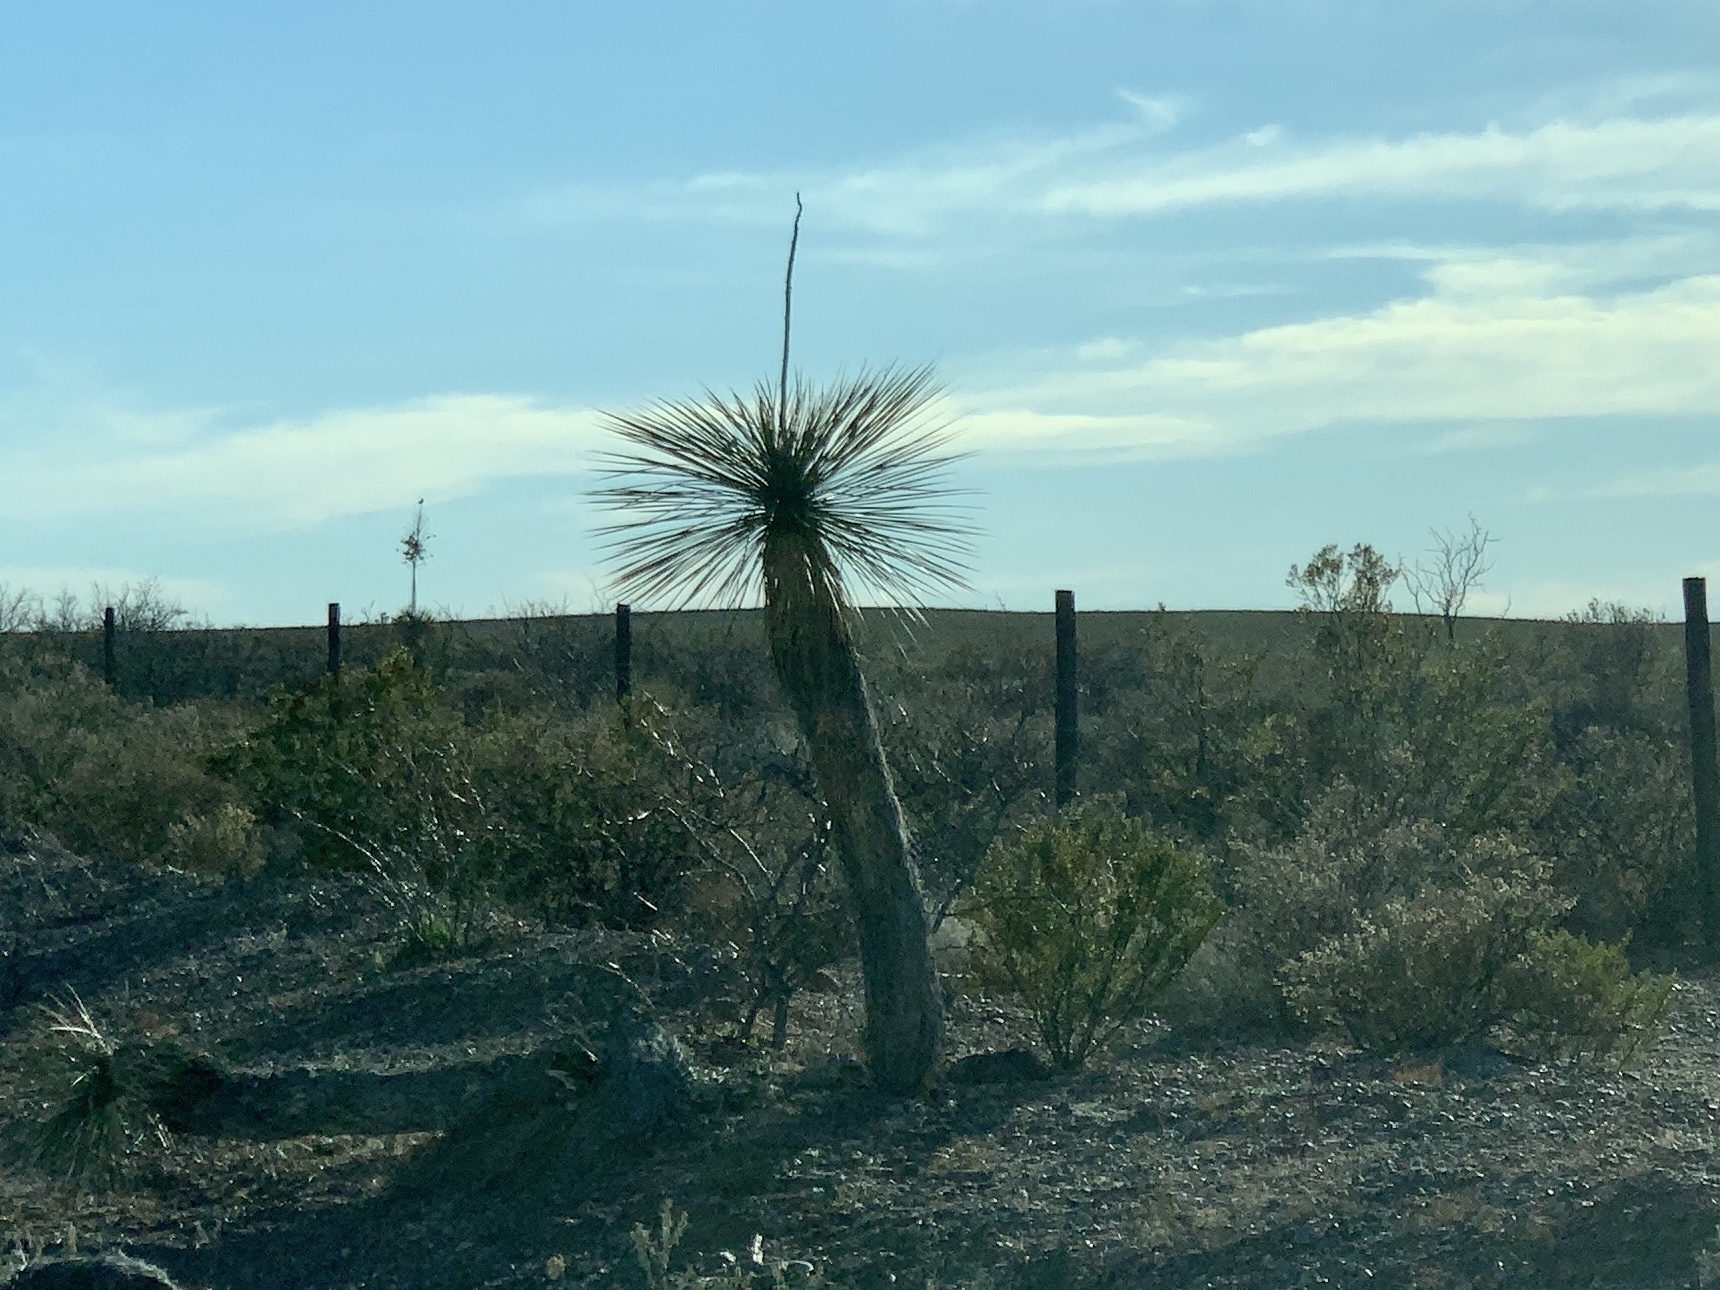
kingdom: Plantae
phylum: Tracheophyta
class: Liliopsida
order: Asparagales
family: Asparagaceae
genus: Yucca
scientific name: Yucca elata
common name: Palmella
